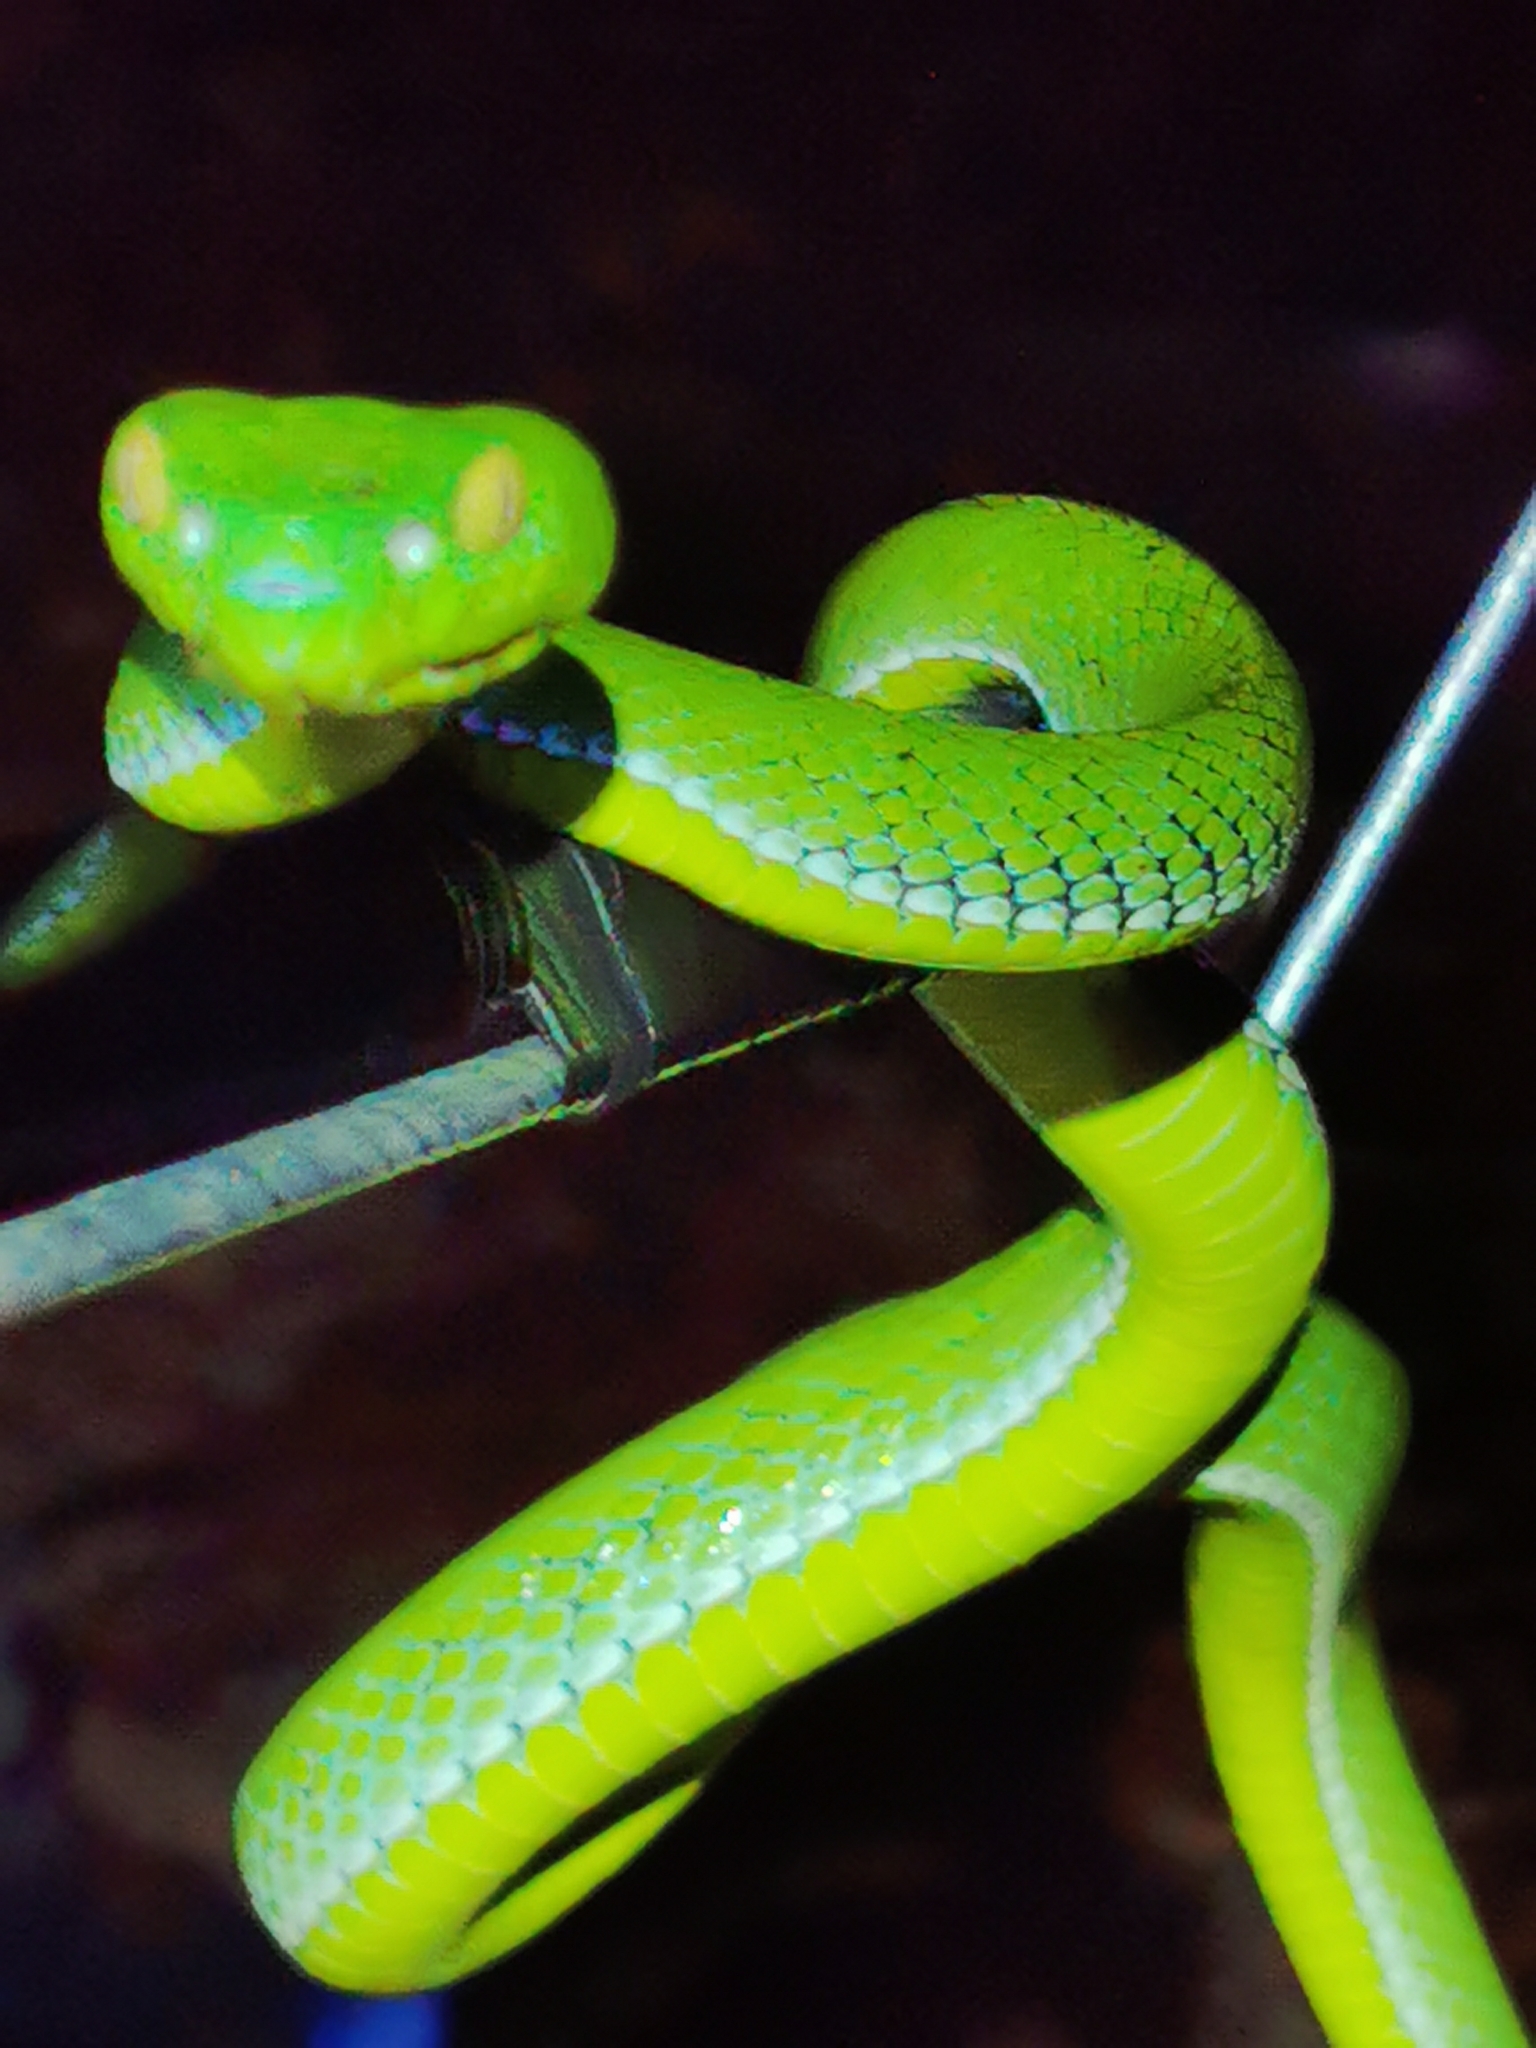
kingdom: Animalia
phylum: Chordata
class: Squamata
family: Viperidae
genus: Trimeresurus
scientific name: Trimeresurus vogeli
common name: Vogel's pit viper
